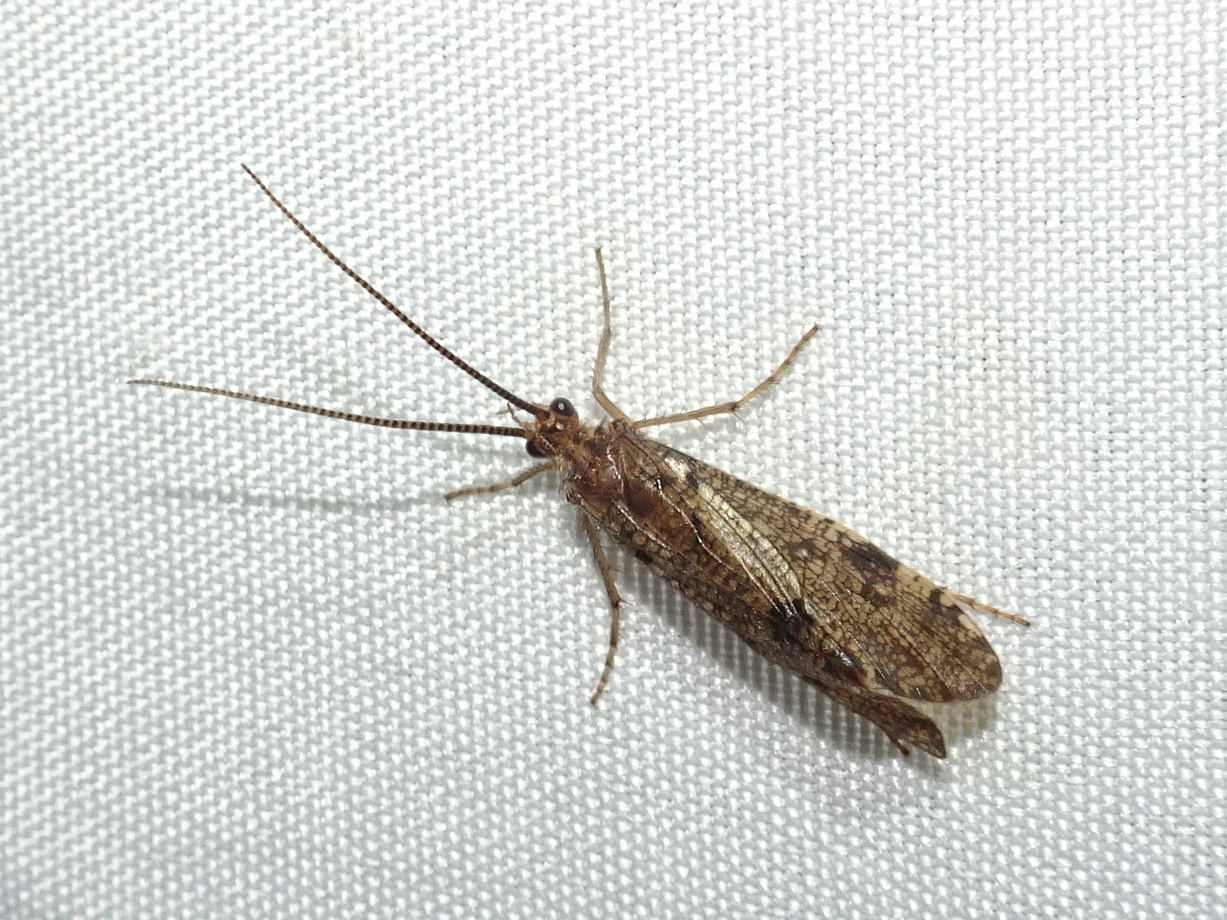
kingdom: Animalia
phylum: Arthropoda
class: Insecta
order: Trichoptera
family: Phryganeidae
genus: Banksiola
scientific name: Banksiola crotchi
